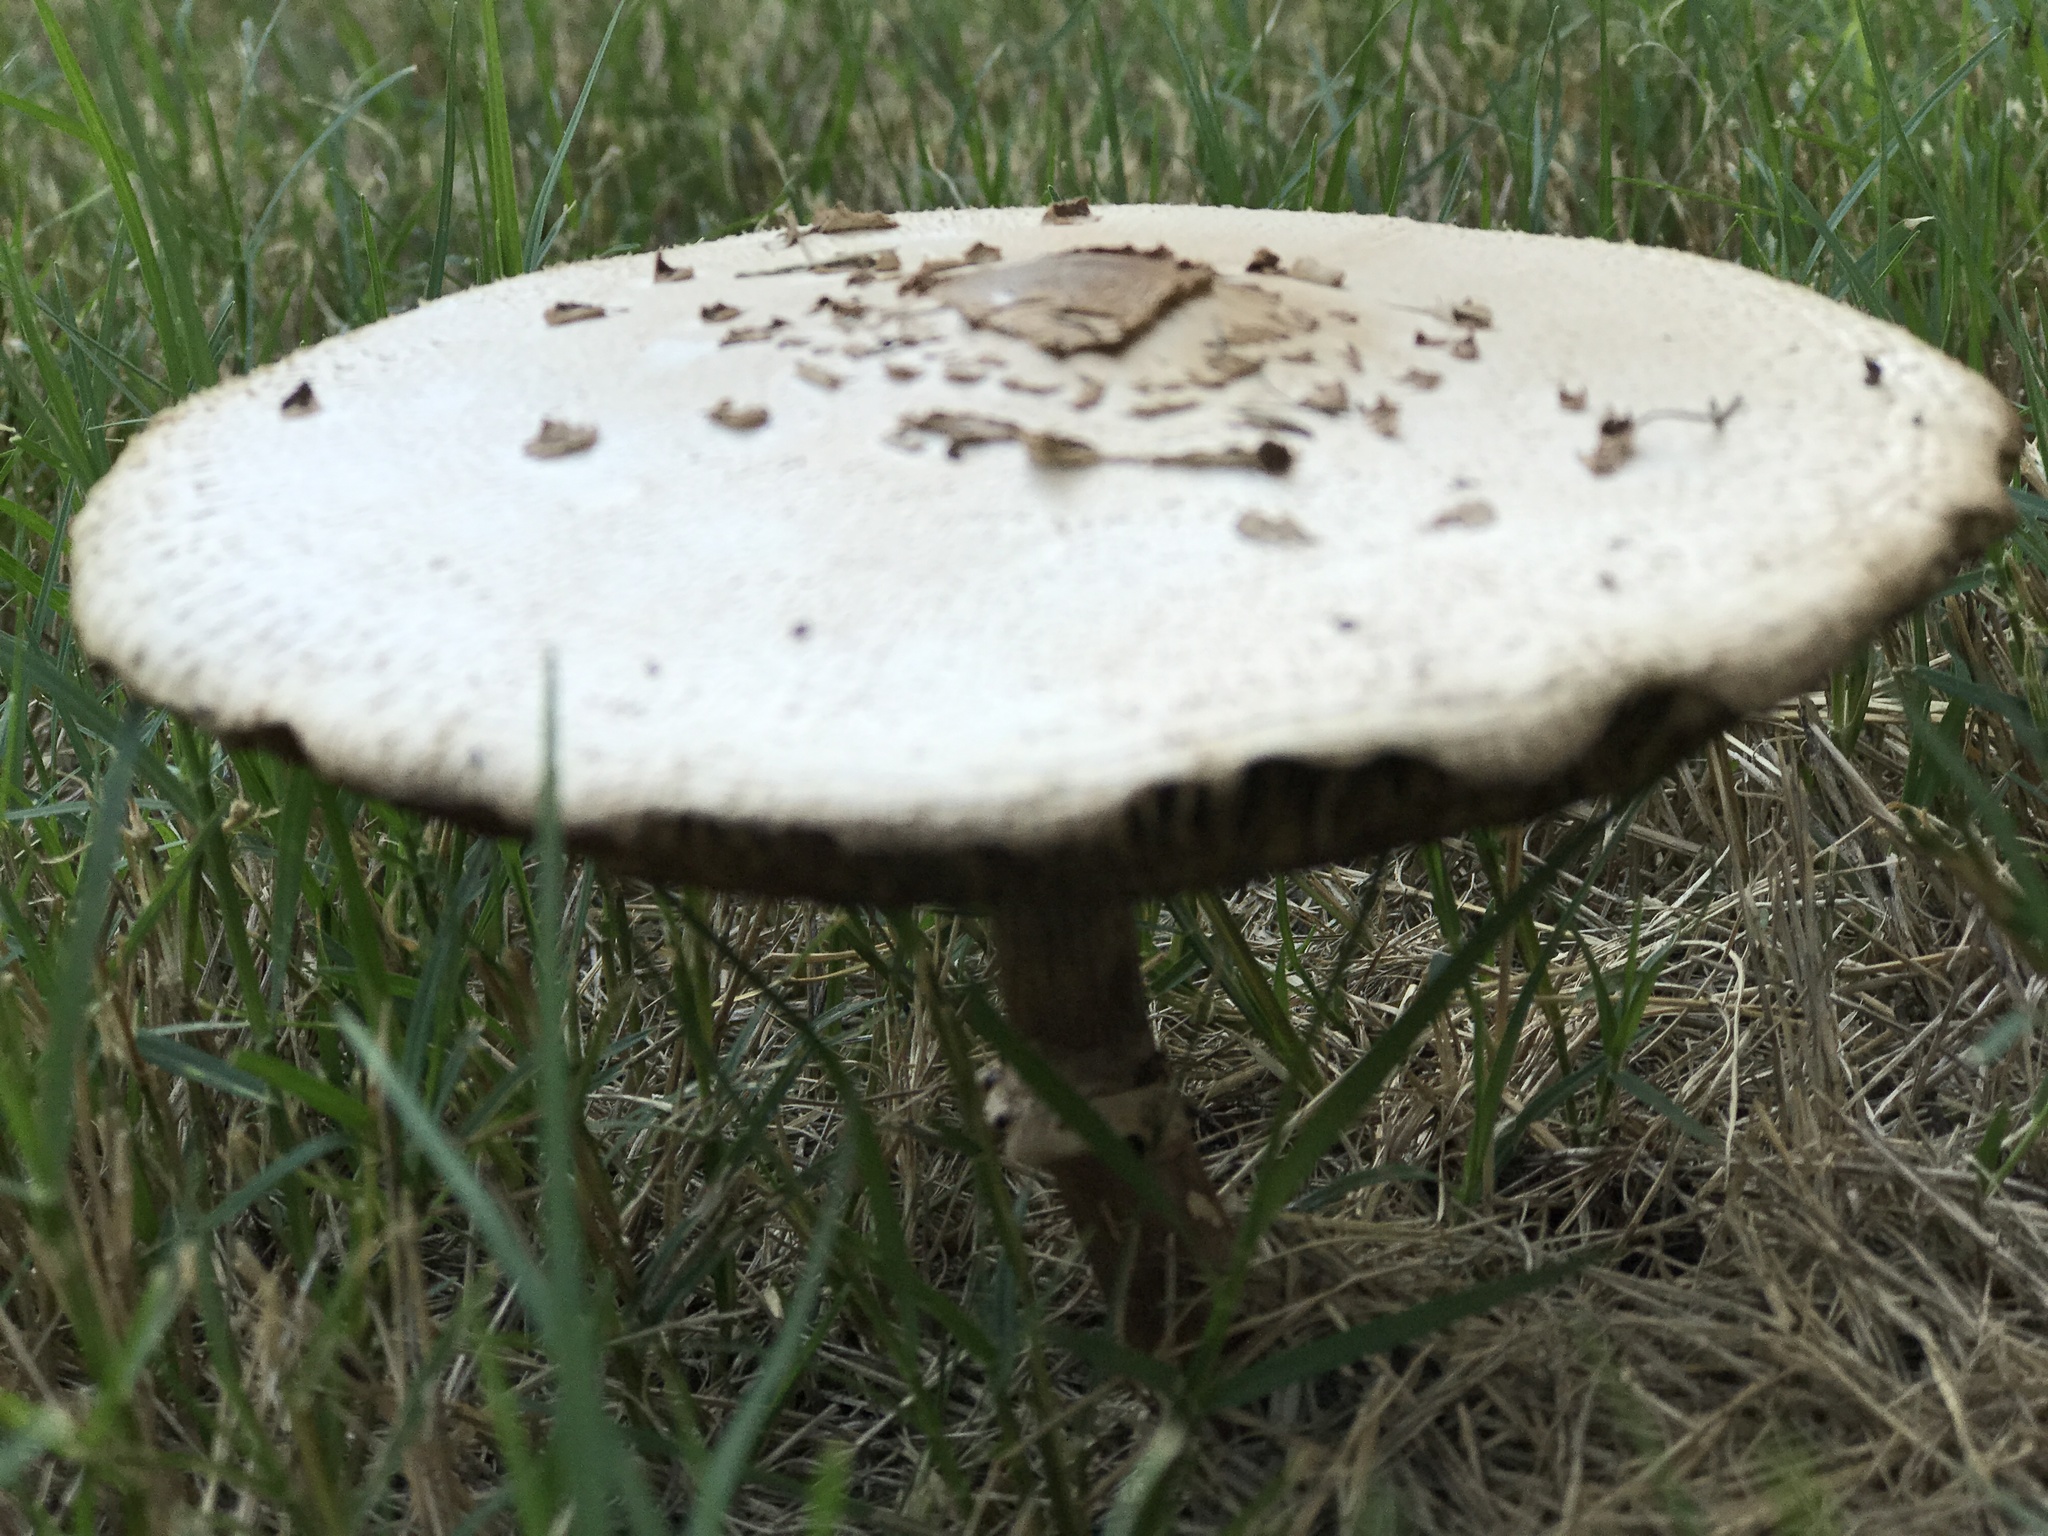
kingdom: Fungi
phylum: Basidiomycota
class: Agaricomycetes
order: Agaricales
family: Agaricaceae
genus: Chlorophyllum
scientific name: Chlorophyllum molybdites
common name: False parasol
